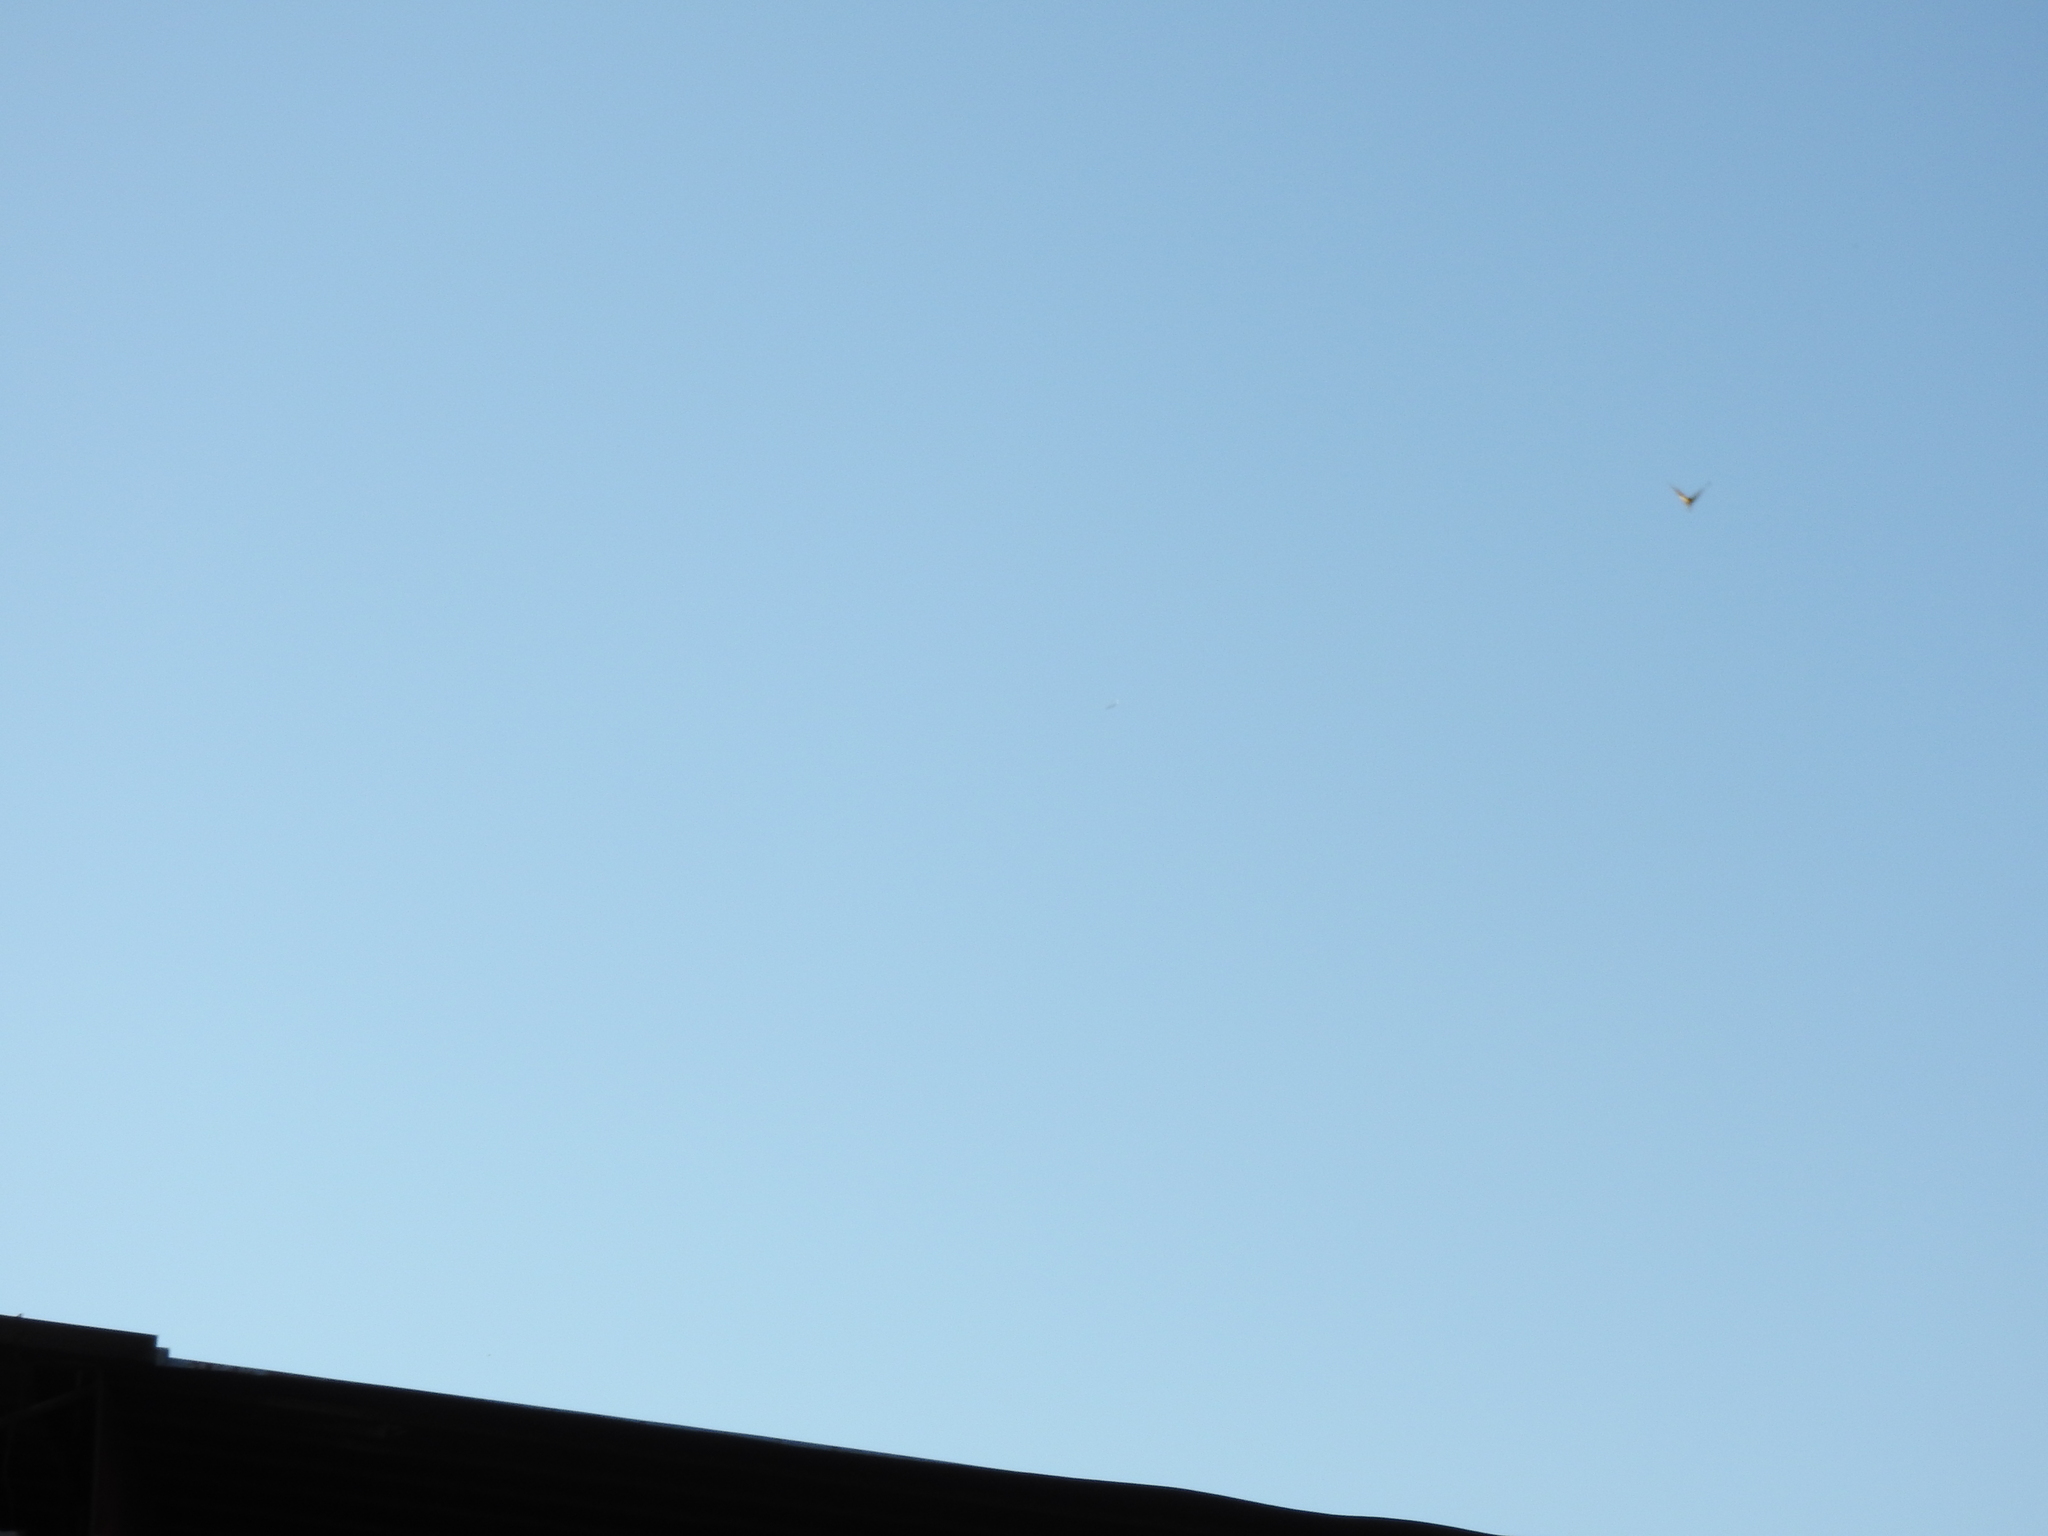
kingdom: Animalia
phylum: Arthropoda
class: Insecta
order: Lepidoptera
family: Nymphalidae
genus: Danaus
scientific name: Danaus plexippus
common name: Monarch
